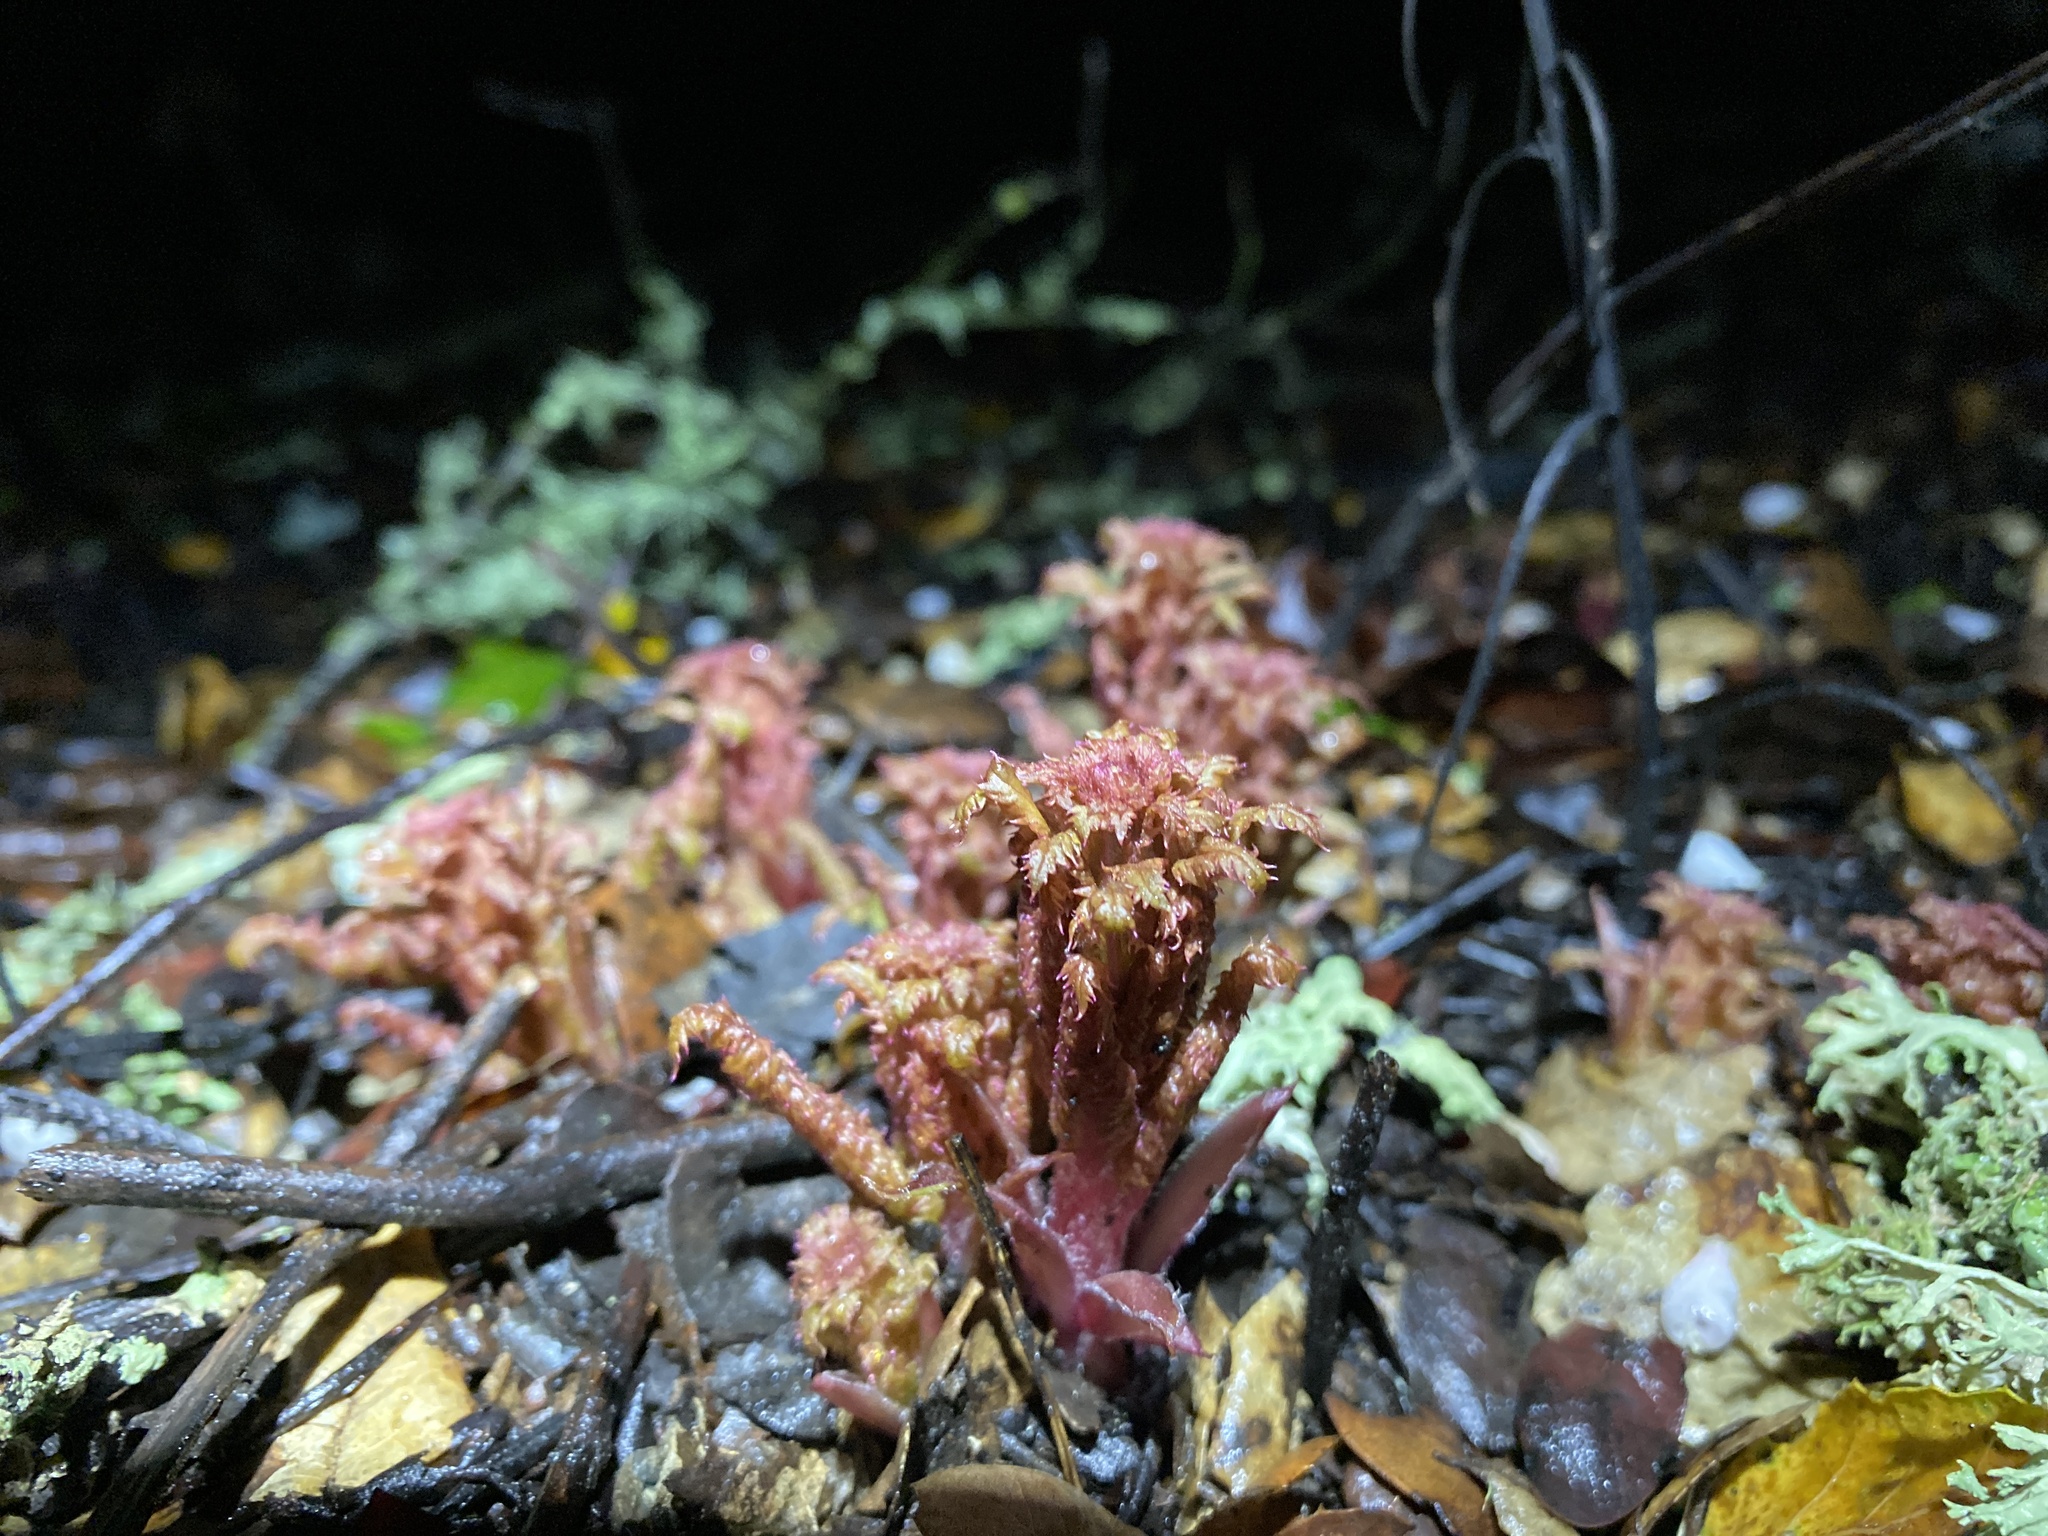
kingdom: Plantae
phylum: Tracheophyta
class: Magnoliopsida
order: Lamiales
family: Orobanchaceae
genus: Pedicularis
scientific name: Pedicularis densiflora
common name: Indian warrior
